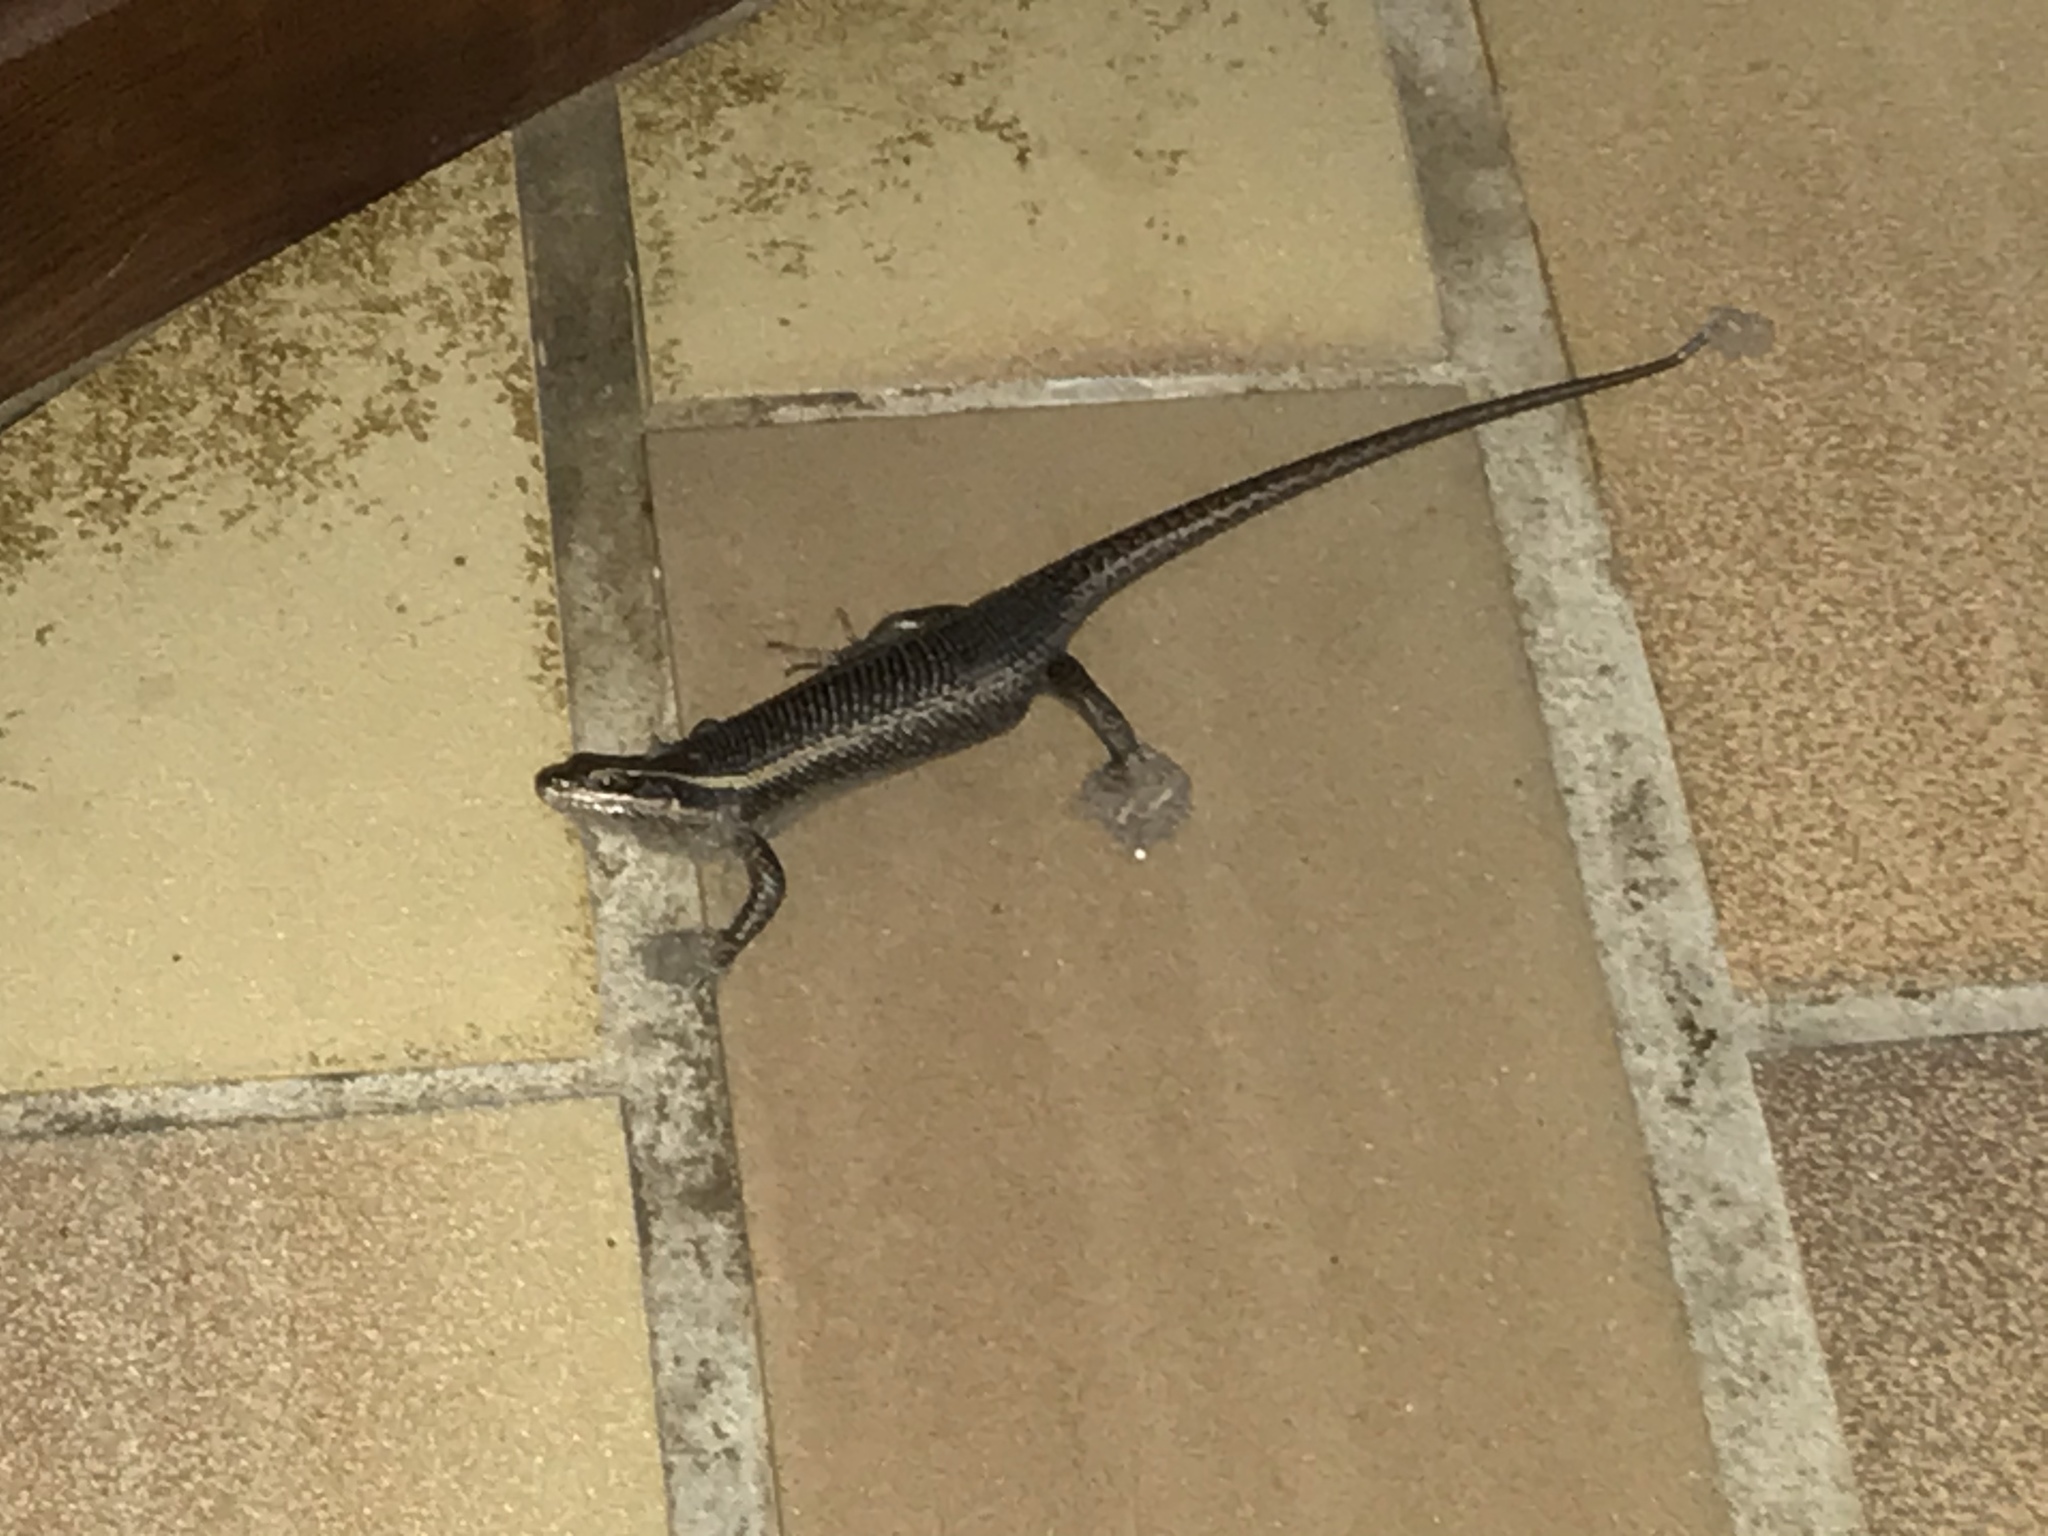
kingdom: Animalia
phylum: Chordata
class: Squamata
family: Scincidae
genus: Trachylepis
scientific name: Trachylepis punctatissima
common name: Montane speckled skink
